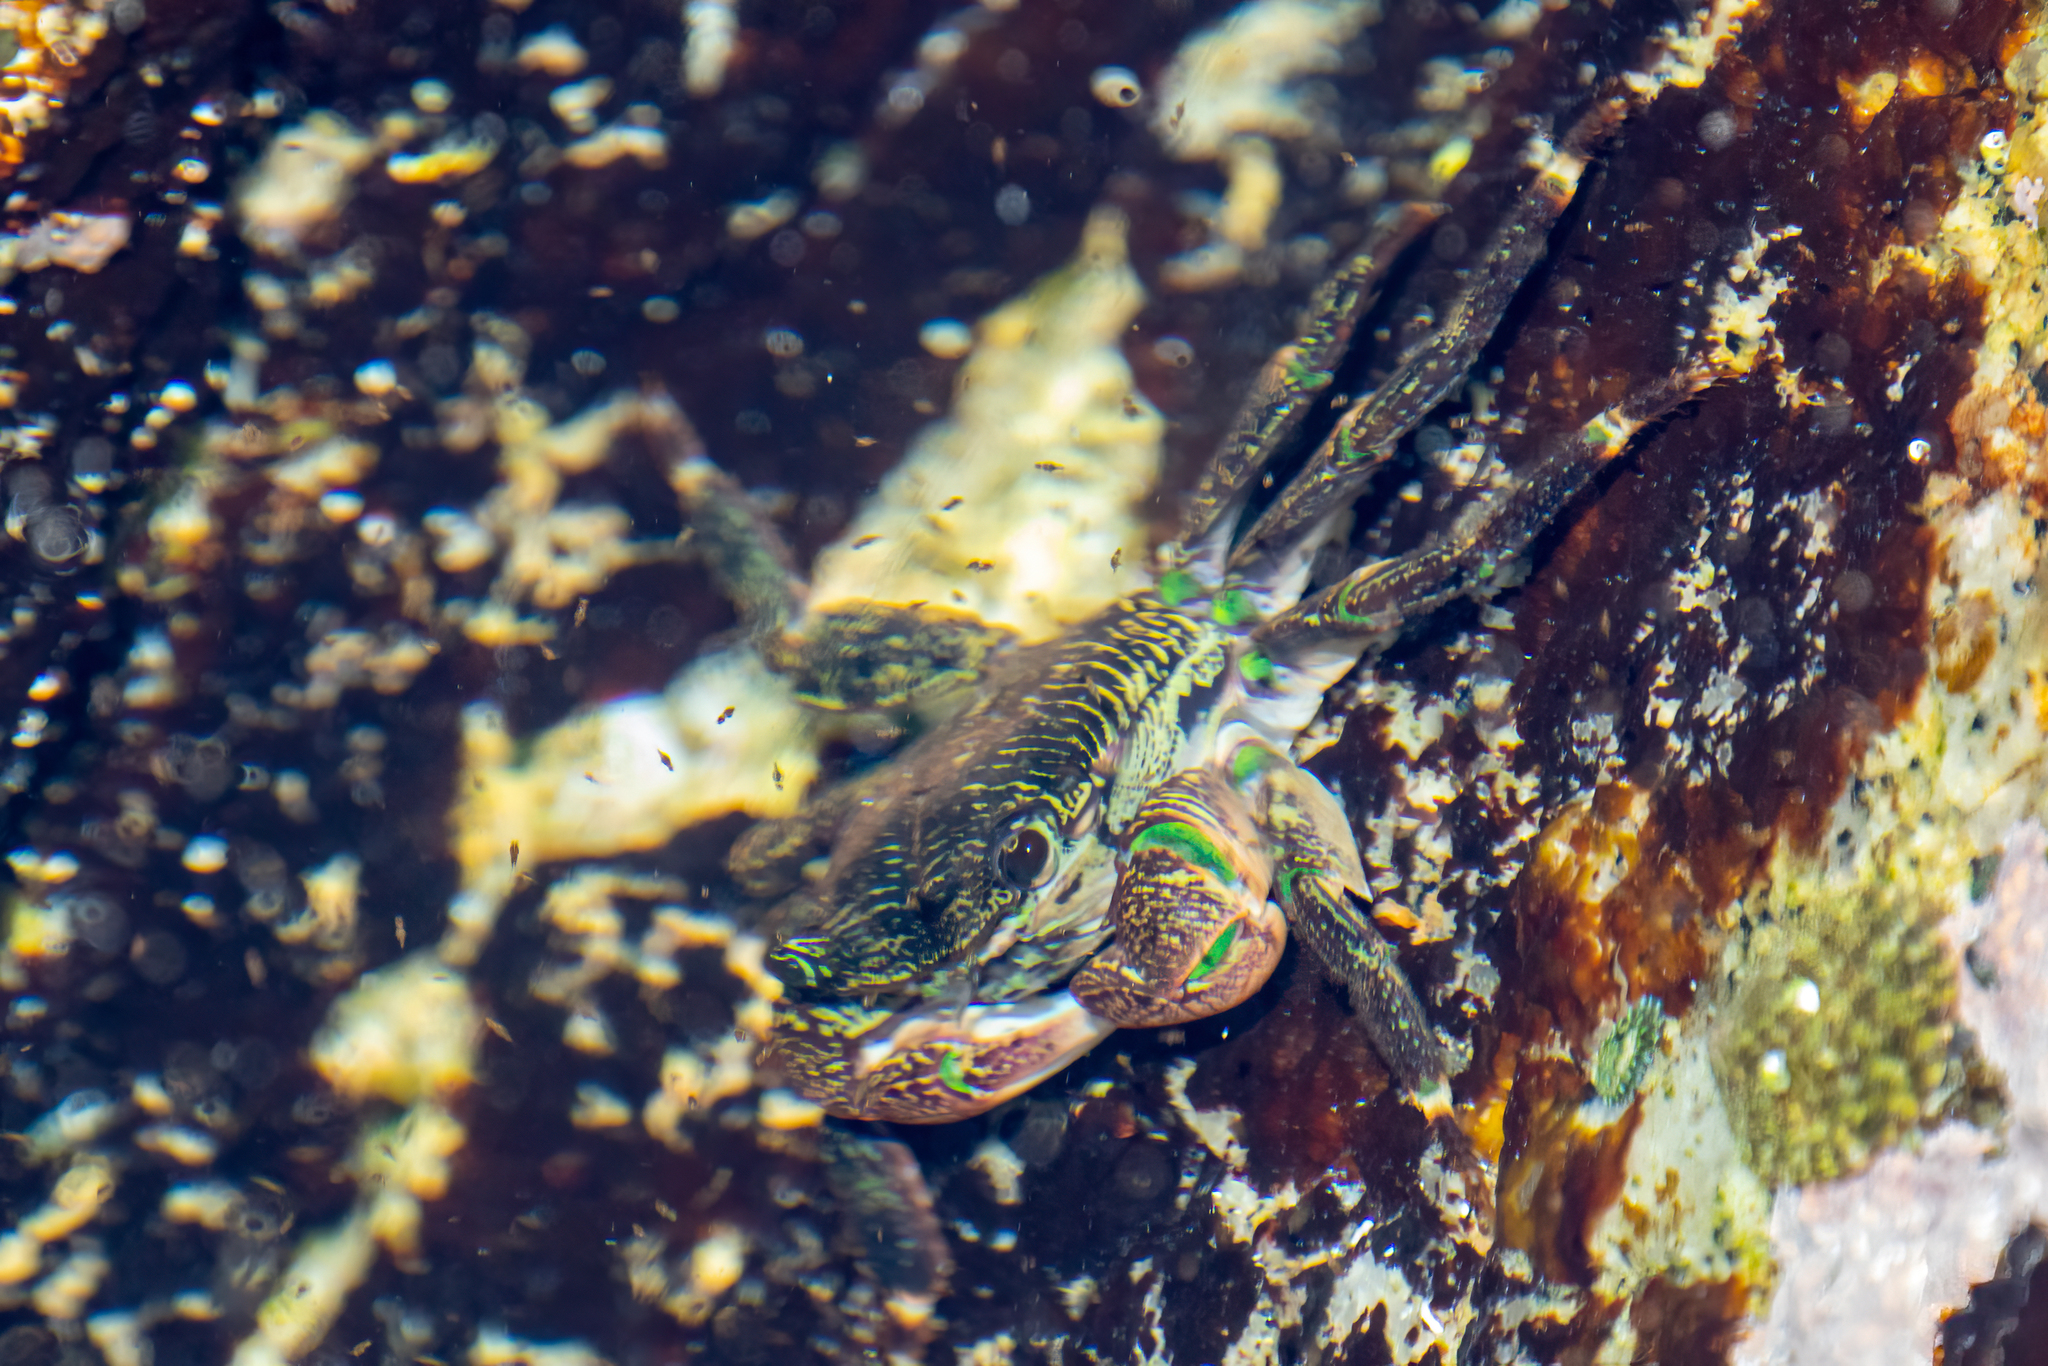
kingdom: Animalia
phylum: Arthropoda
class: Malacostraca
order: Decapoda
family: Grapsidae
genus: Pachygrapsus
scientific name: Pachygrapsus crassipes
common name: Striped shore crab
